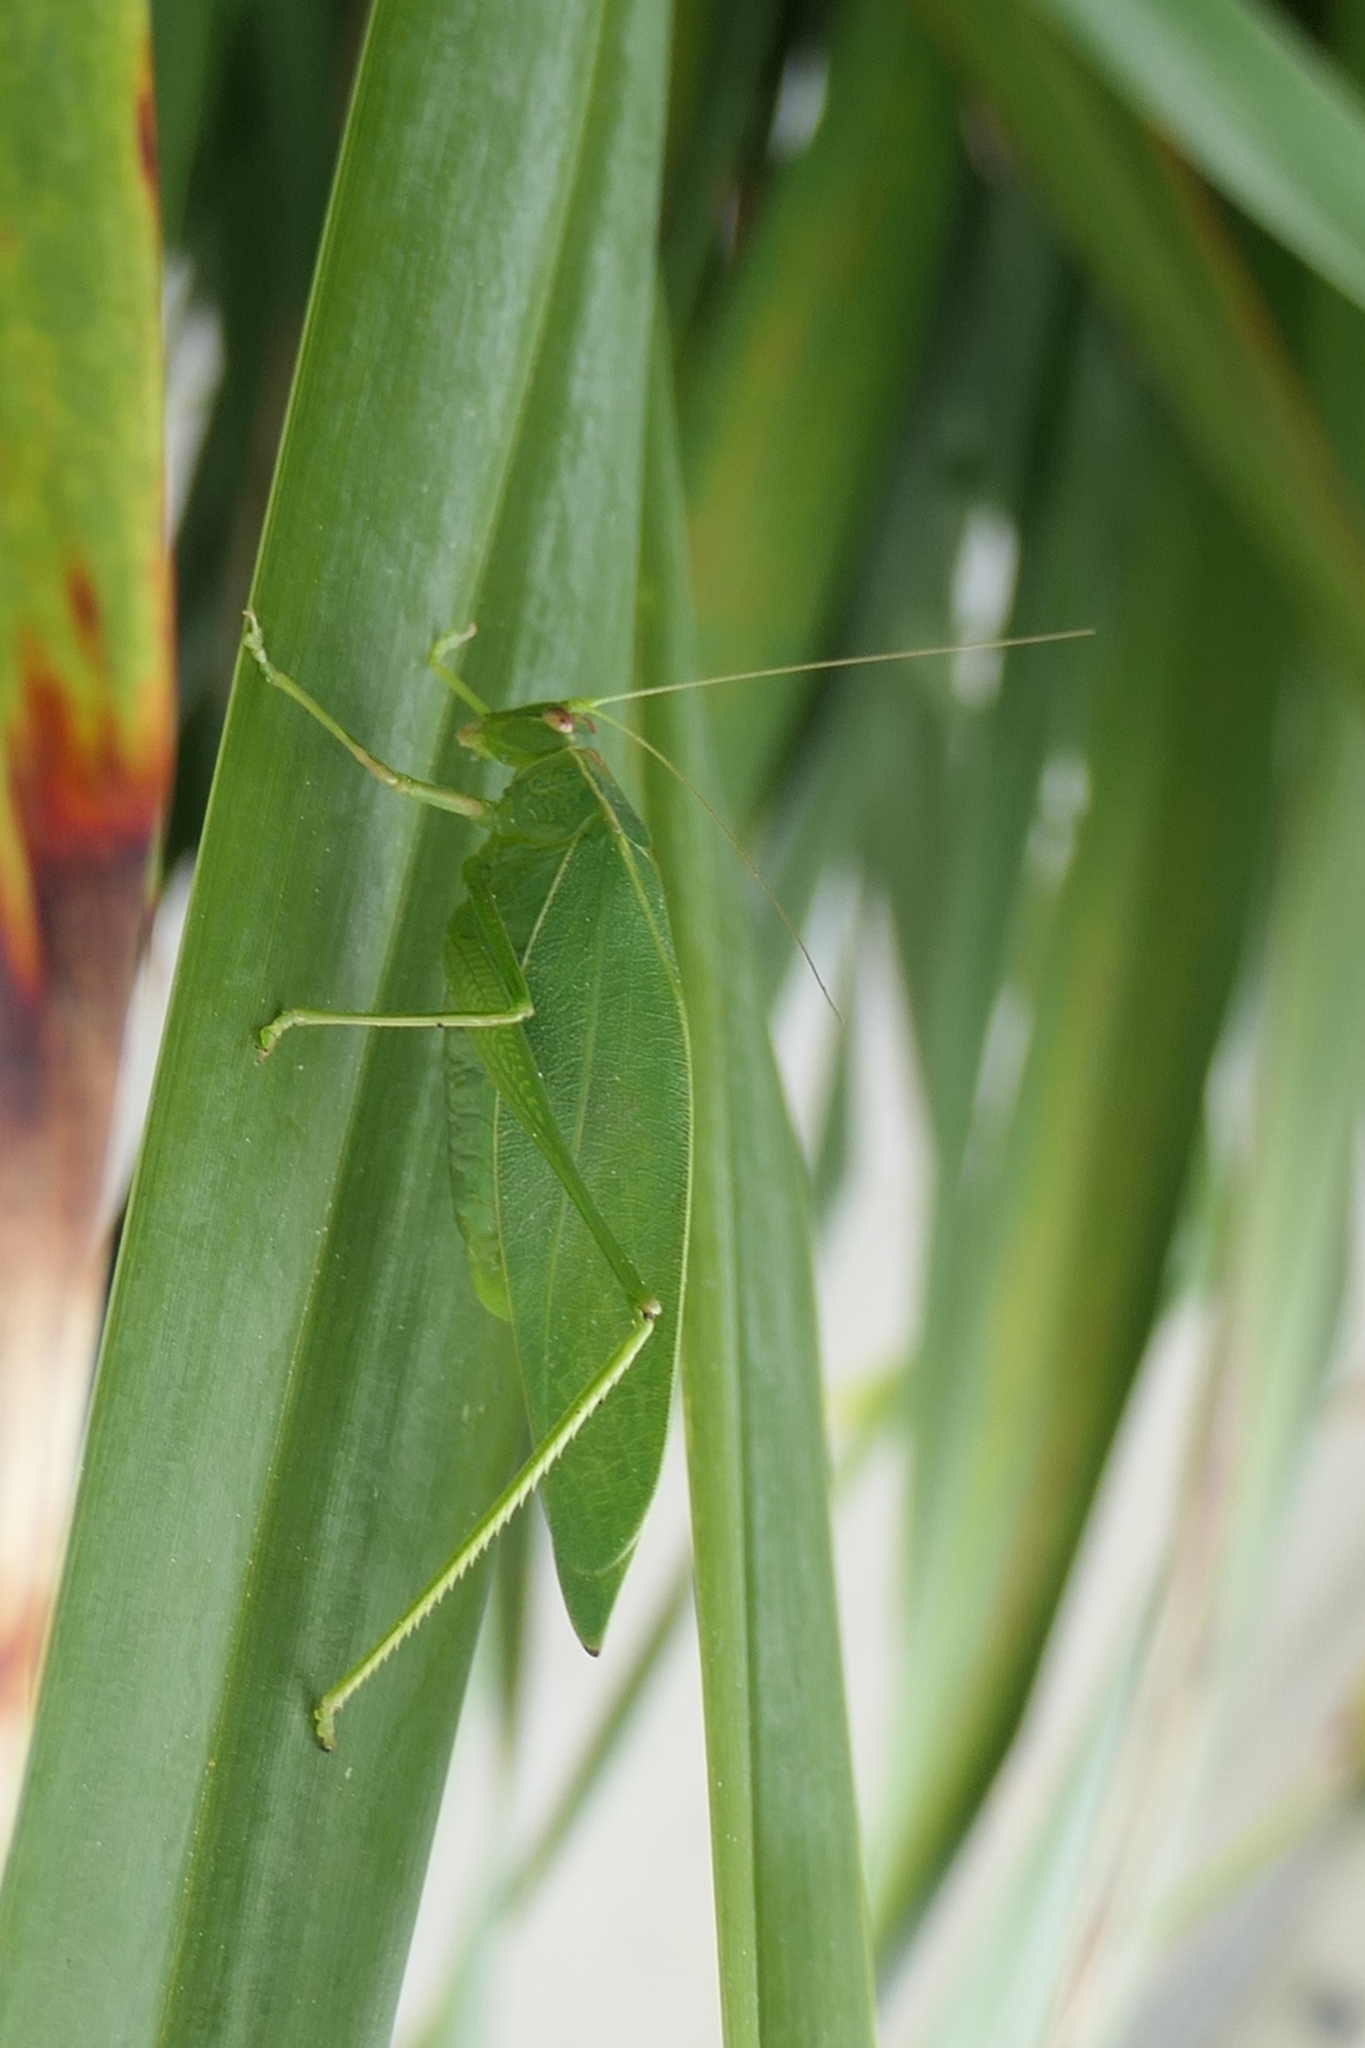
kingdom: Animalia
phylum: Arthropoda
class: Insecta
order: Orthoptera
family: Tettigoniidae
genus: Caedicia
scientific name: Caedicia simplex
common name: Common garden katydid
